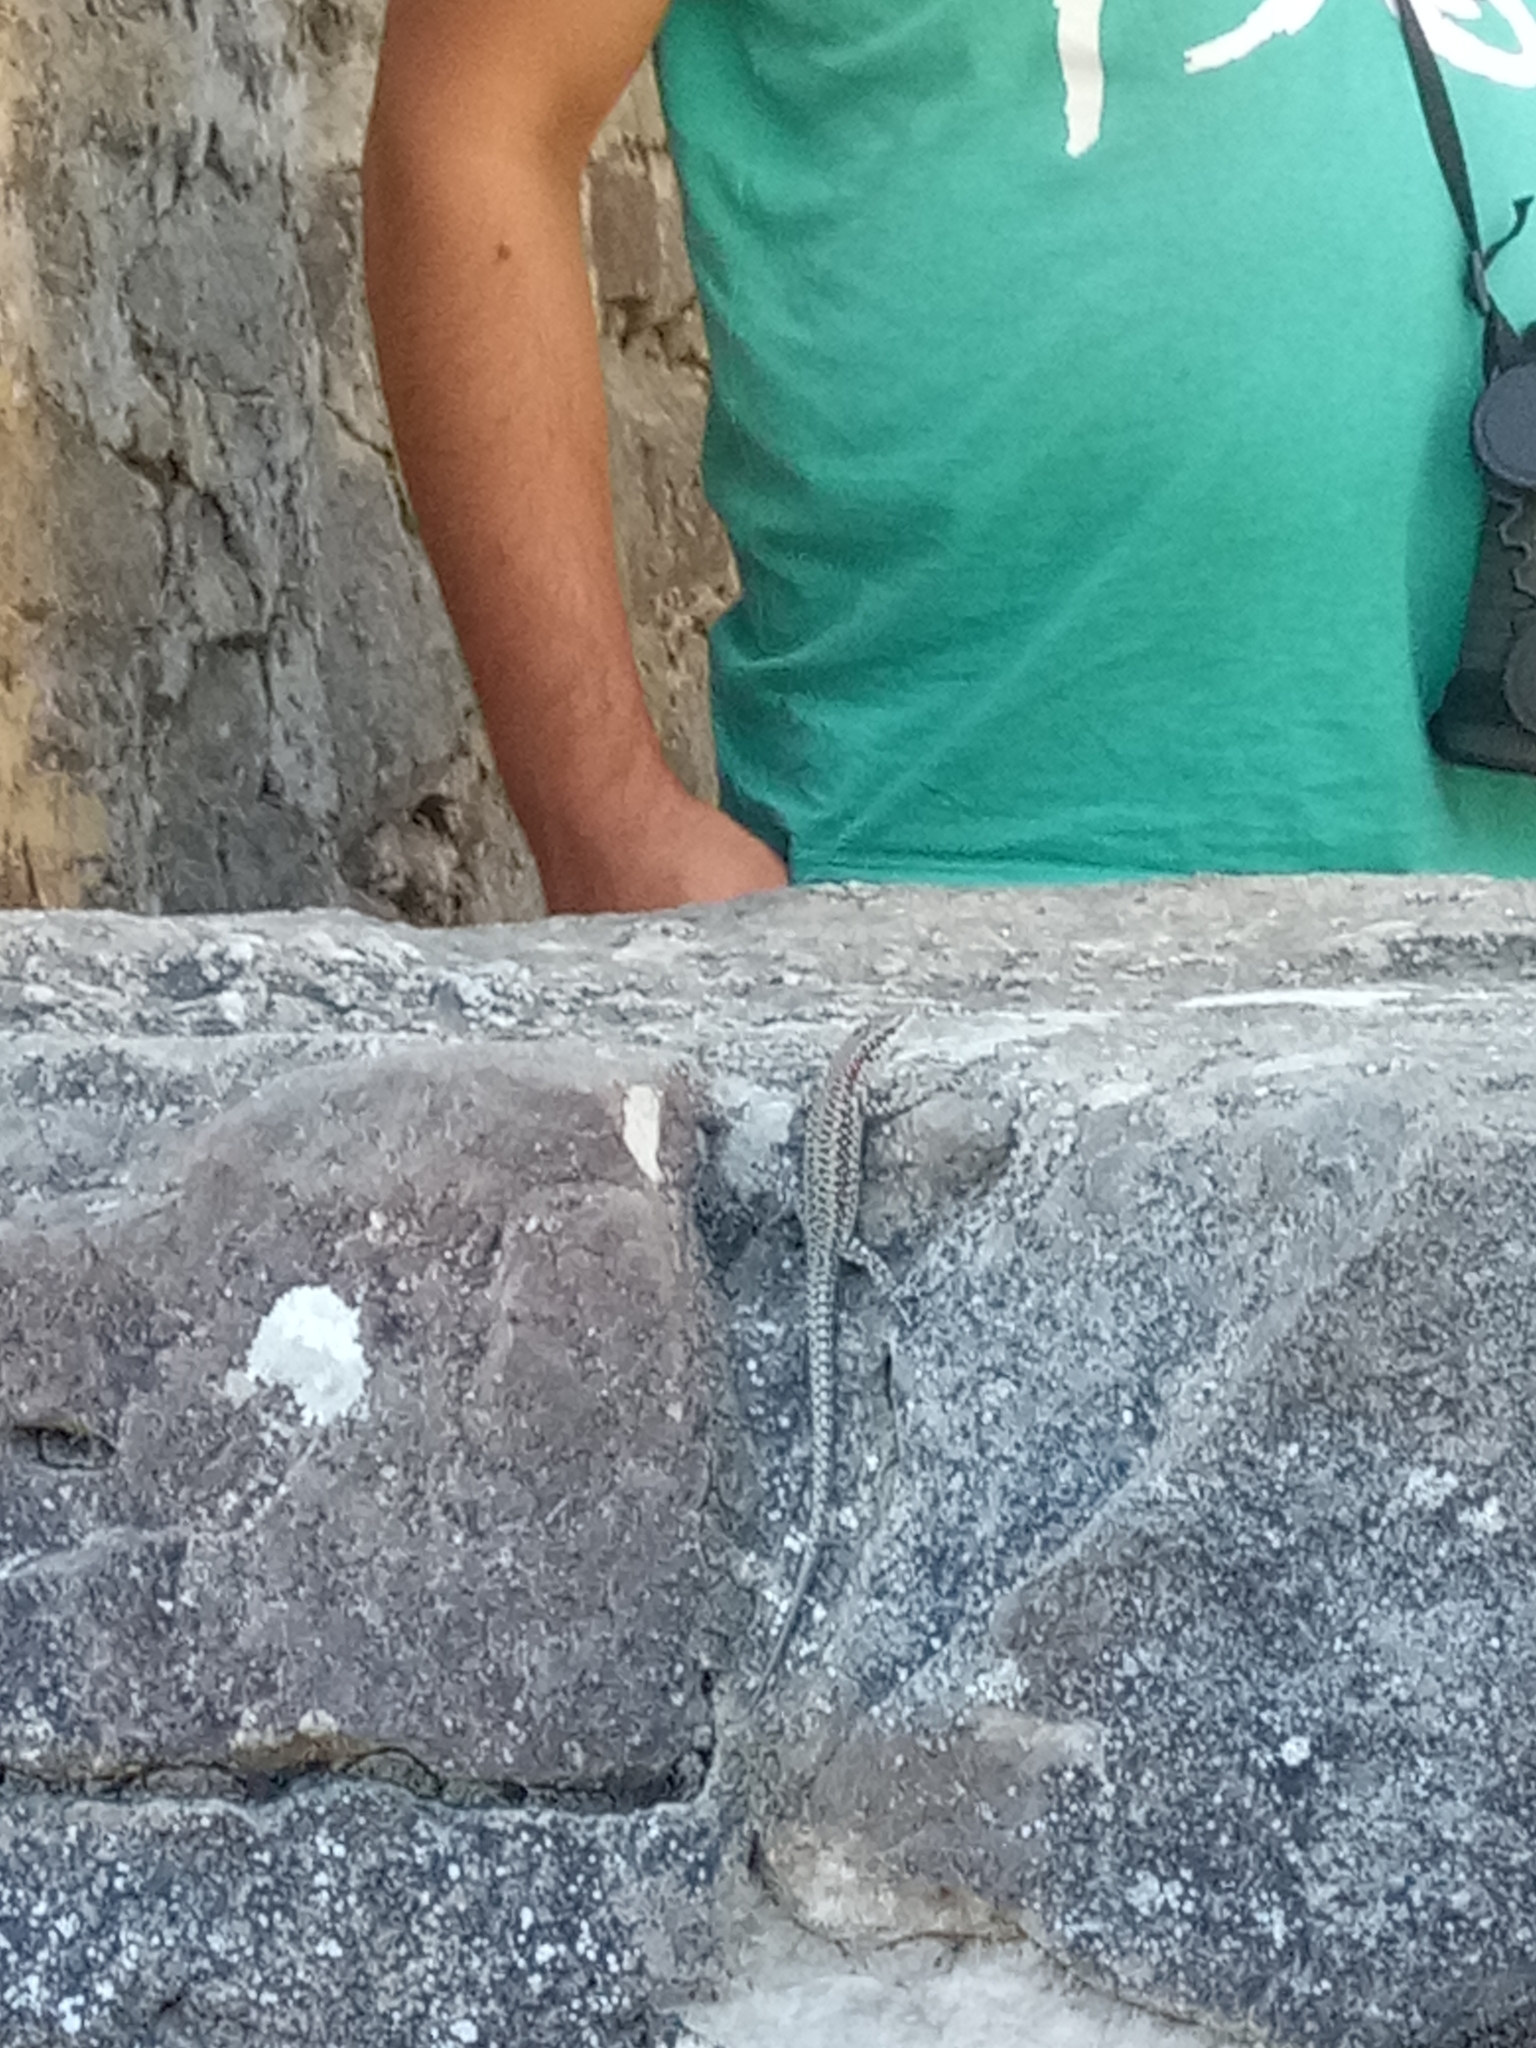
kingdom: Animalia
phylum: Chordata
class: Squamata
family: Lacertidae
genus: Podarcis
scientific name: Podarcis vaucheri
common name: Vaucher's wall lizard
